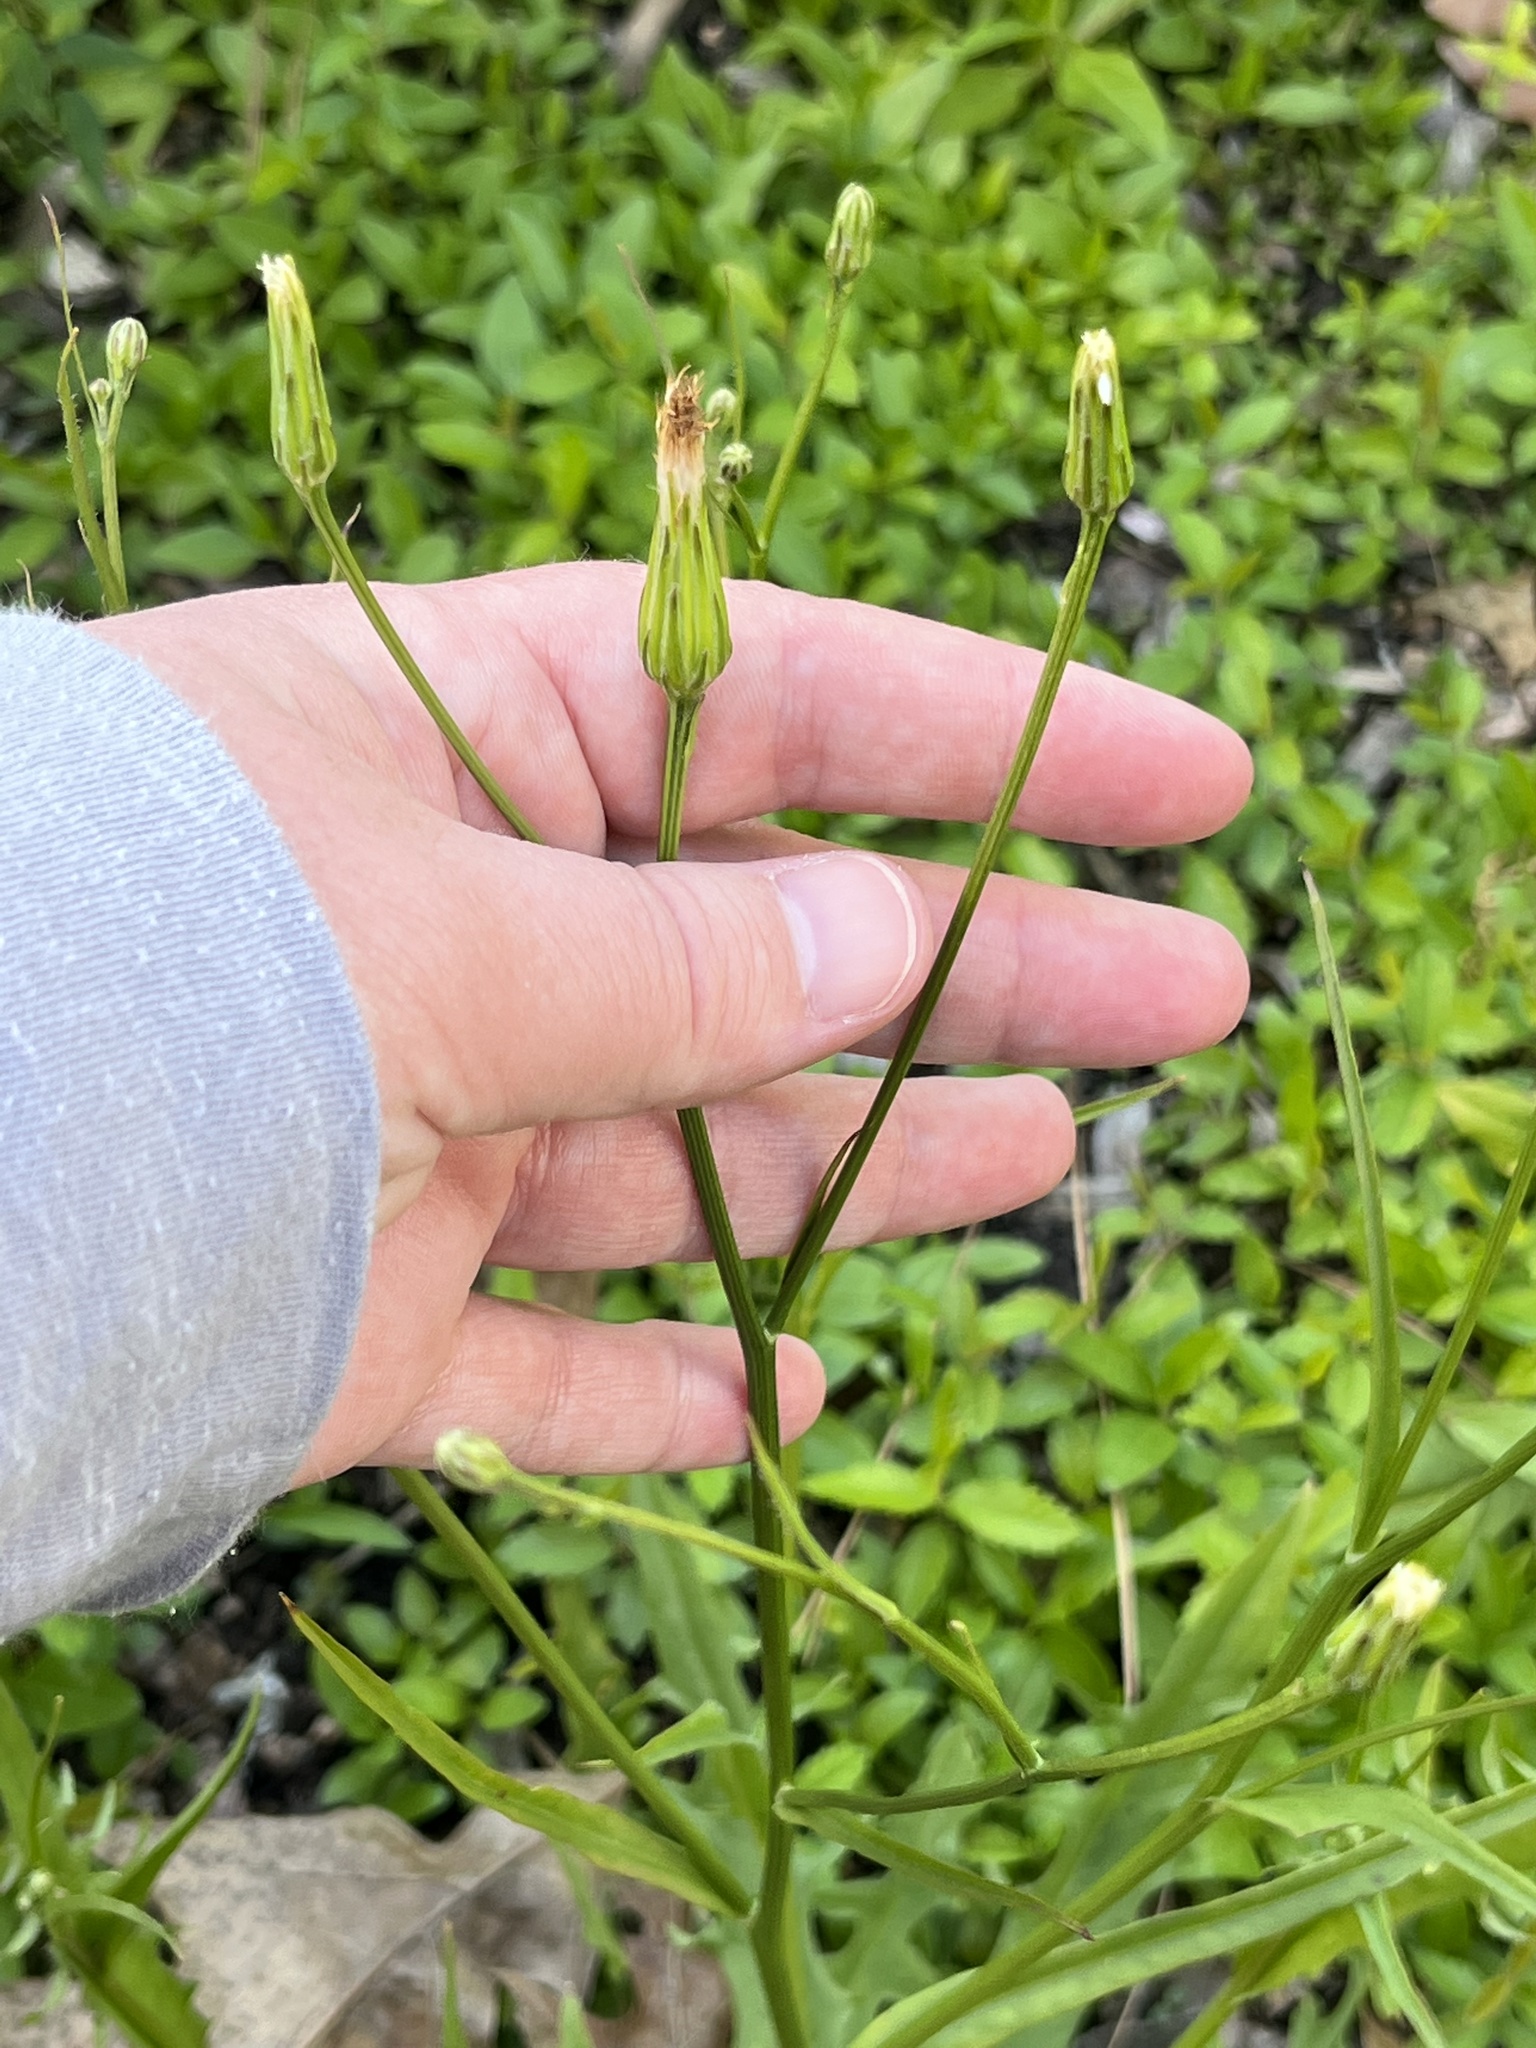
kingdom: Plantae
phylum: Tracheophyta
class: Magnoliopsida
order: Asterales
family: Asteraceae
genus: Hypochaeris
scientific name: Hypochaeris albiflora
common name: White flatweed
